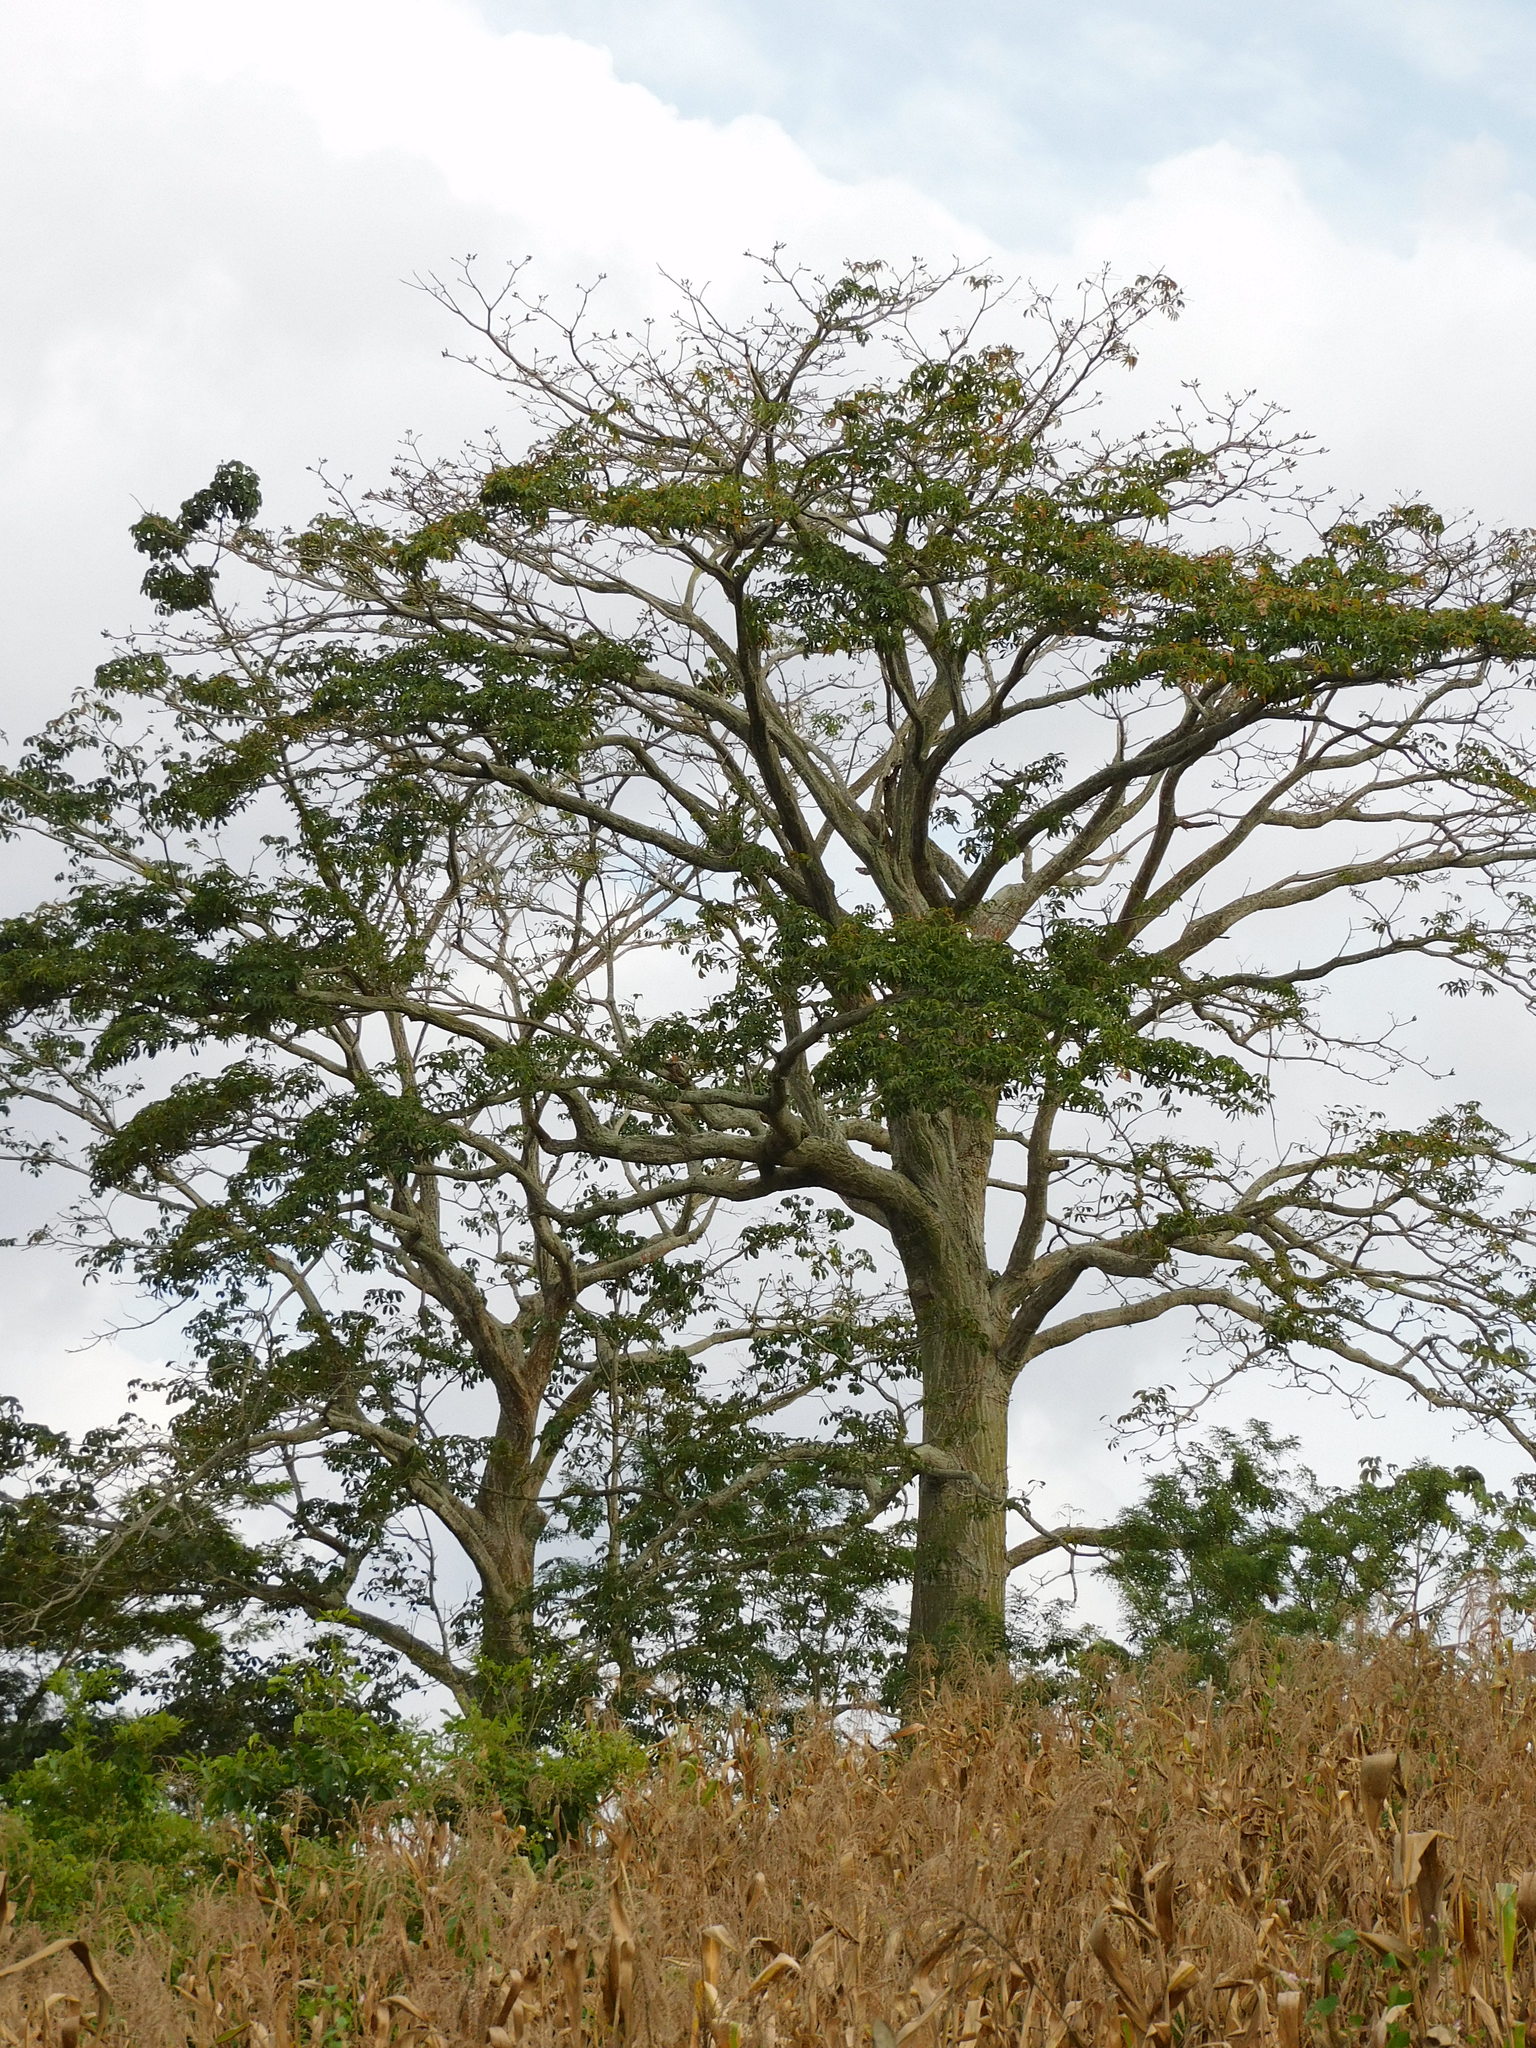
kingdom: Plantae
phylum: Tracheophyta
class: Magnoliopsida
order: Malvales
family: Malvaceae
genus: Pseudobombax
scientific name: Pseudobombax septenatum
